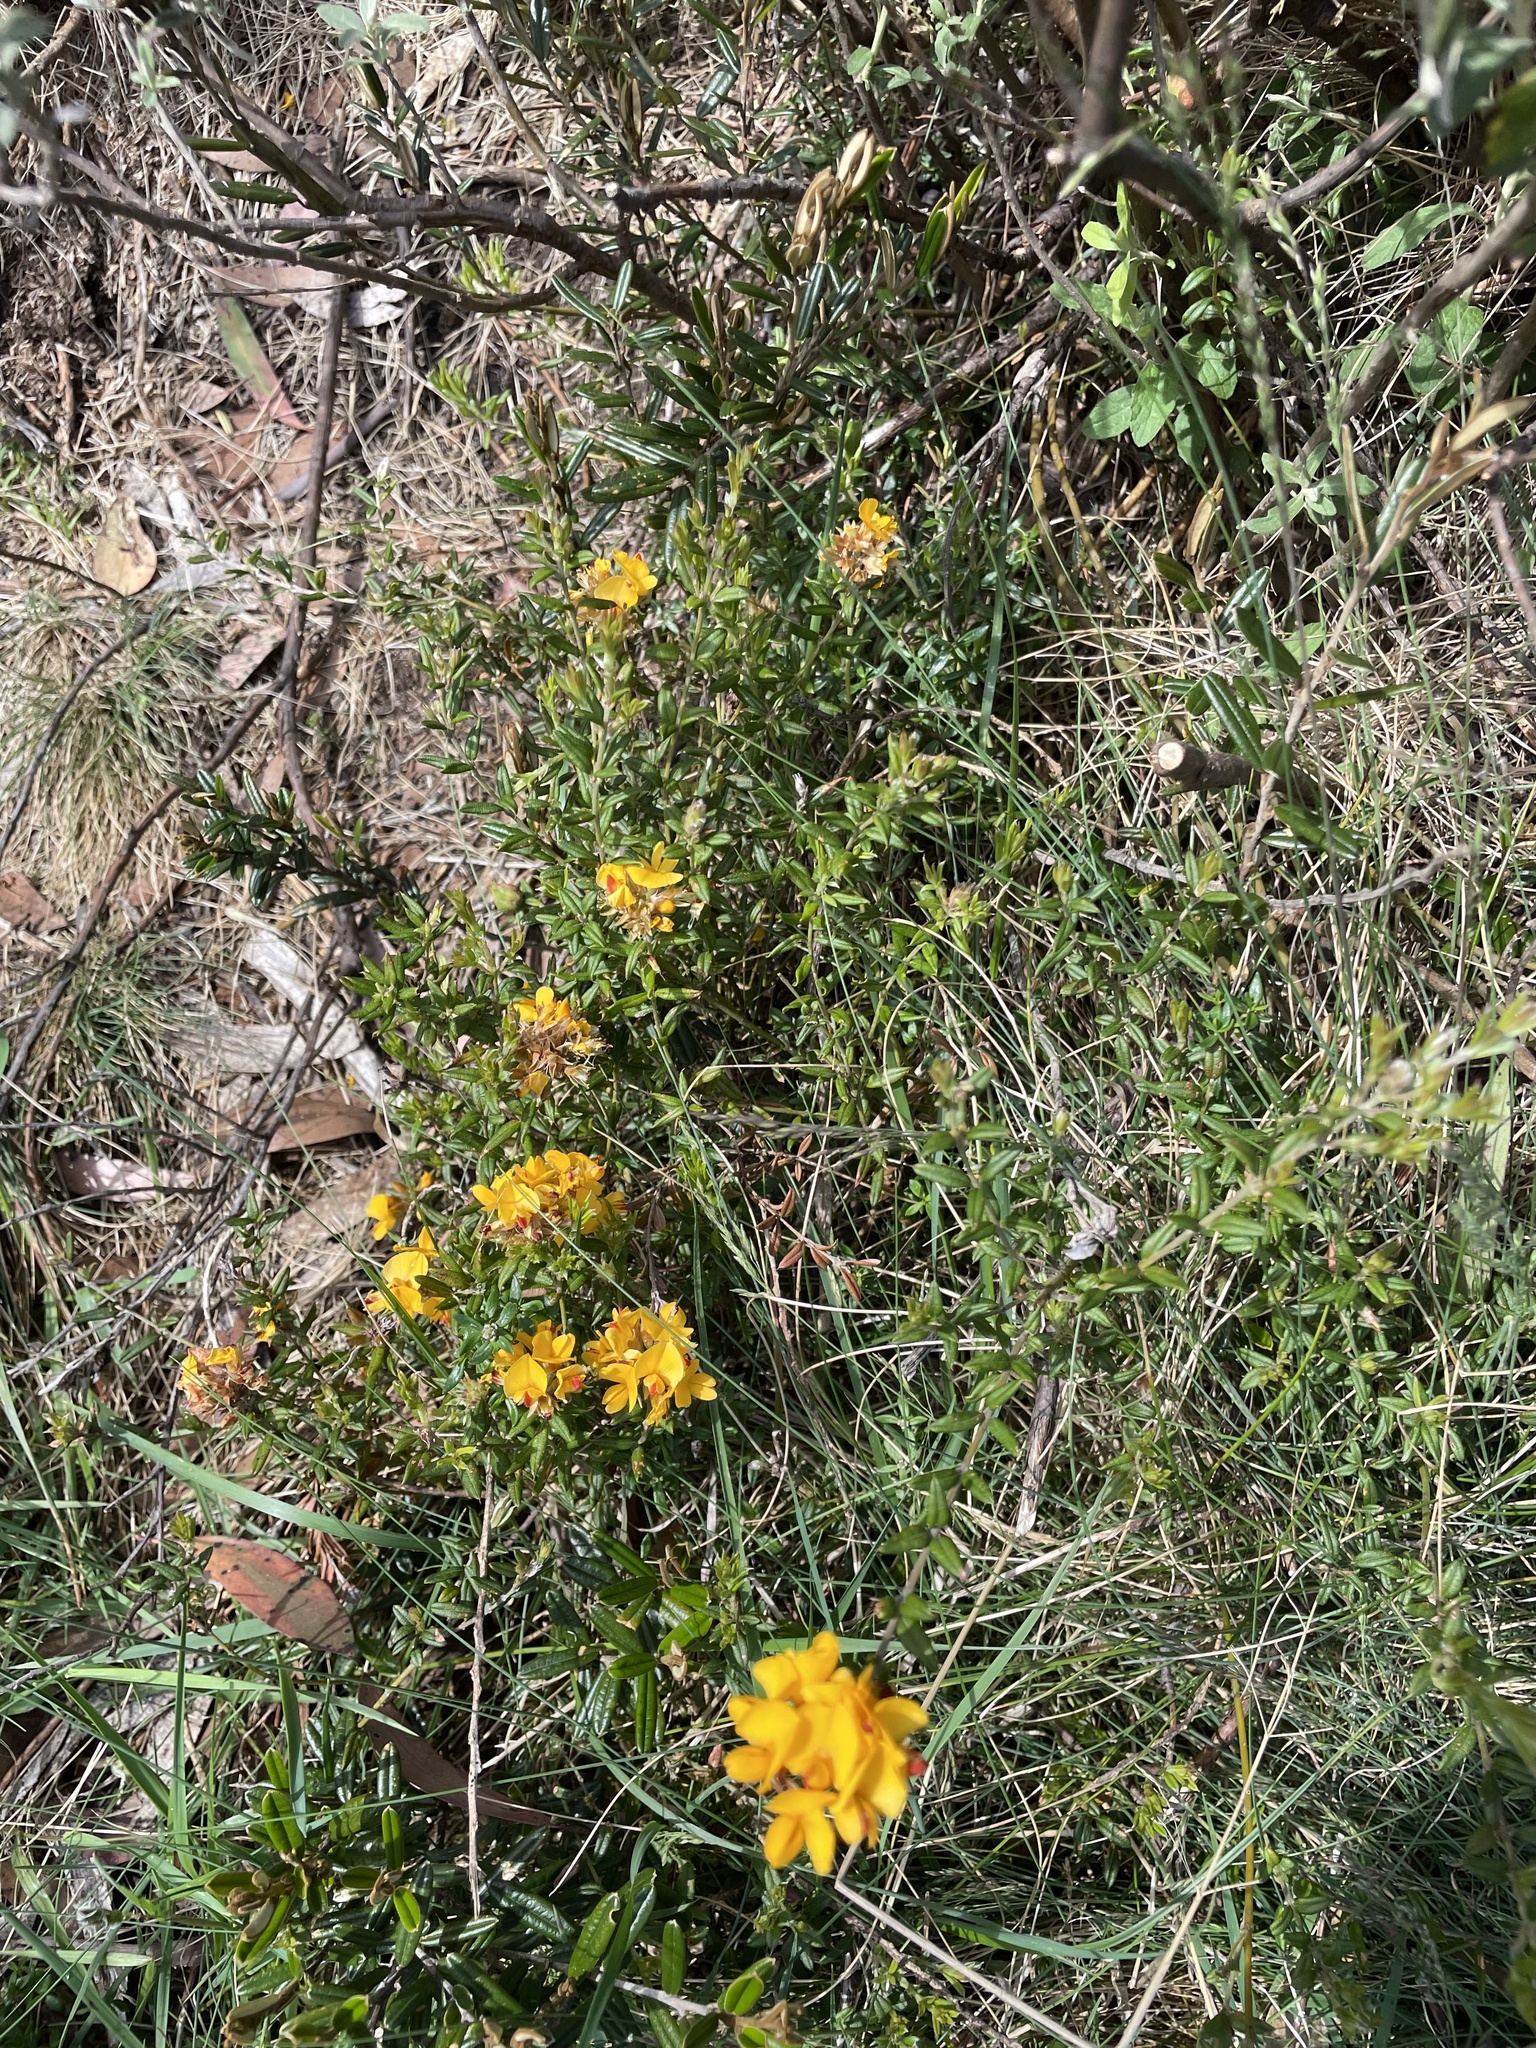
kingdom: Plantae
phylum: Tracheophyta
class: Magnoliopsida
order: Fabales
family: Fabaceae
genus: Oxylobium
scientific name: Oxylobium ellipticum
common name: Golden shaggy-pea
